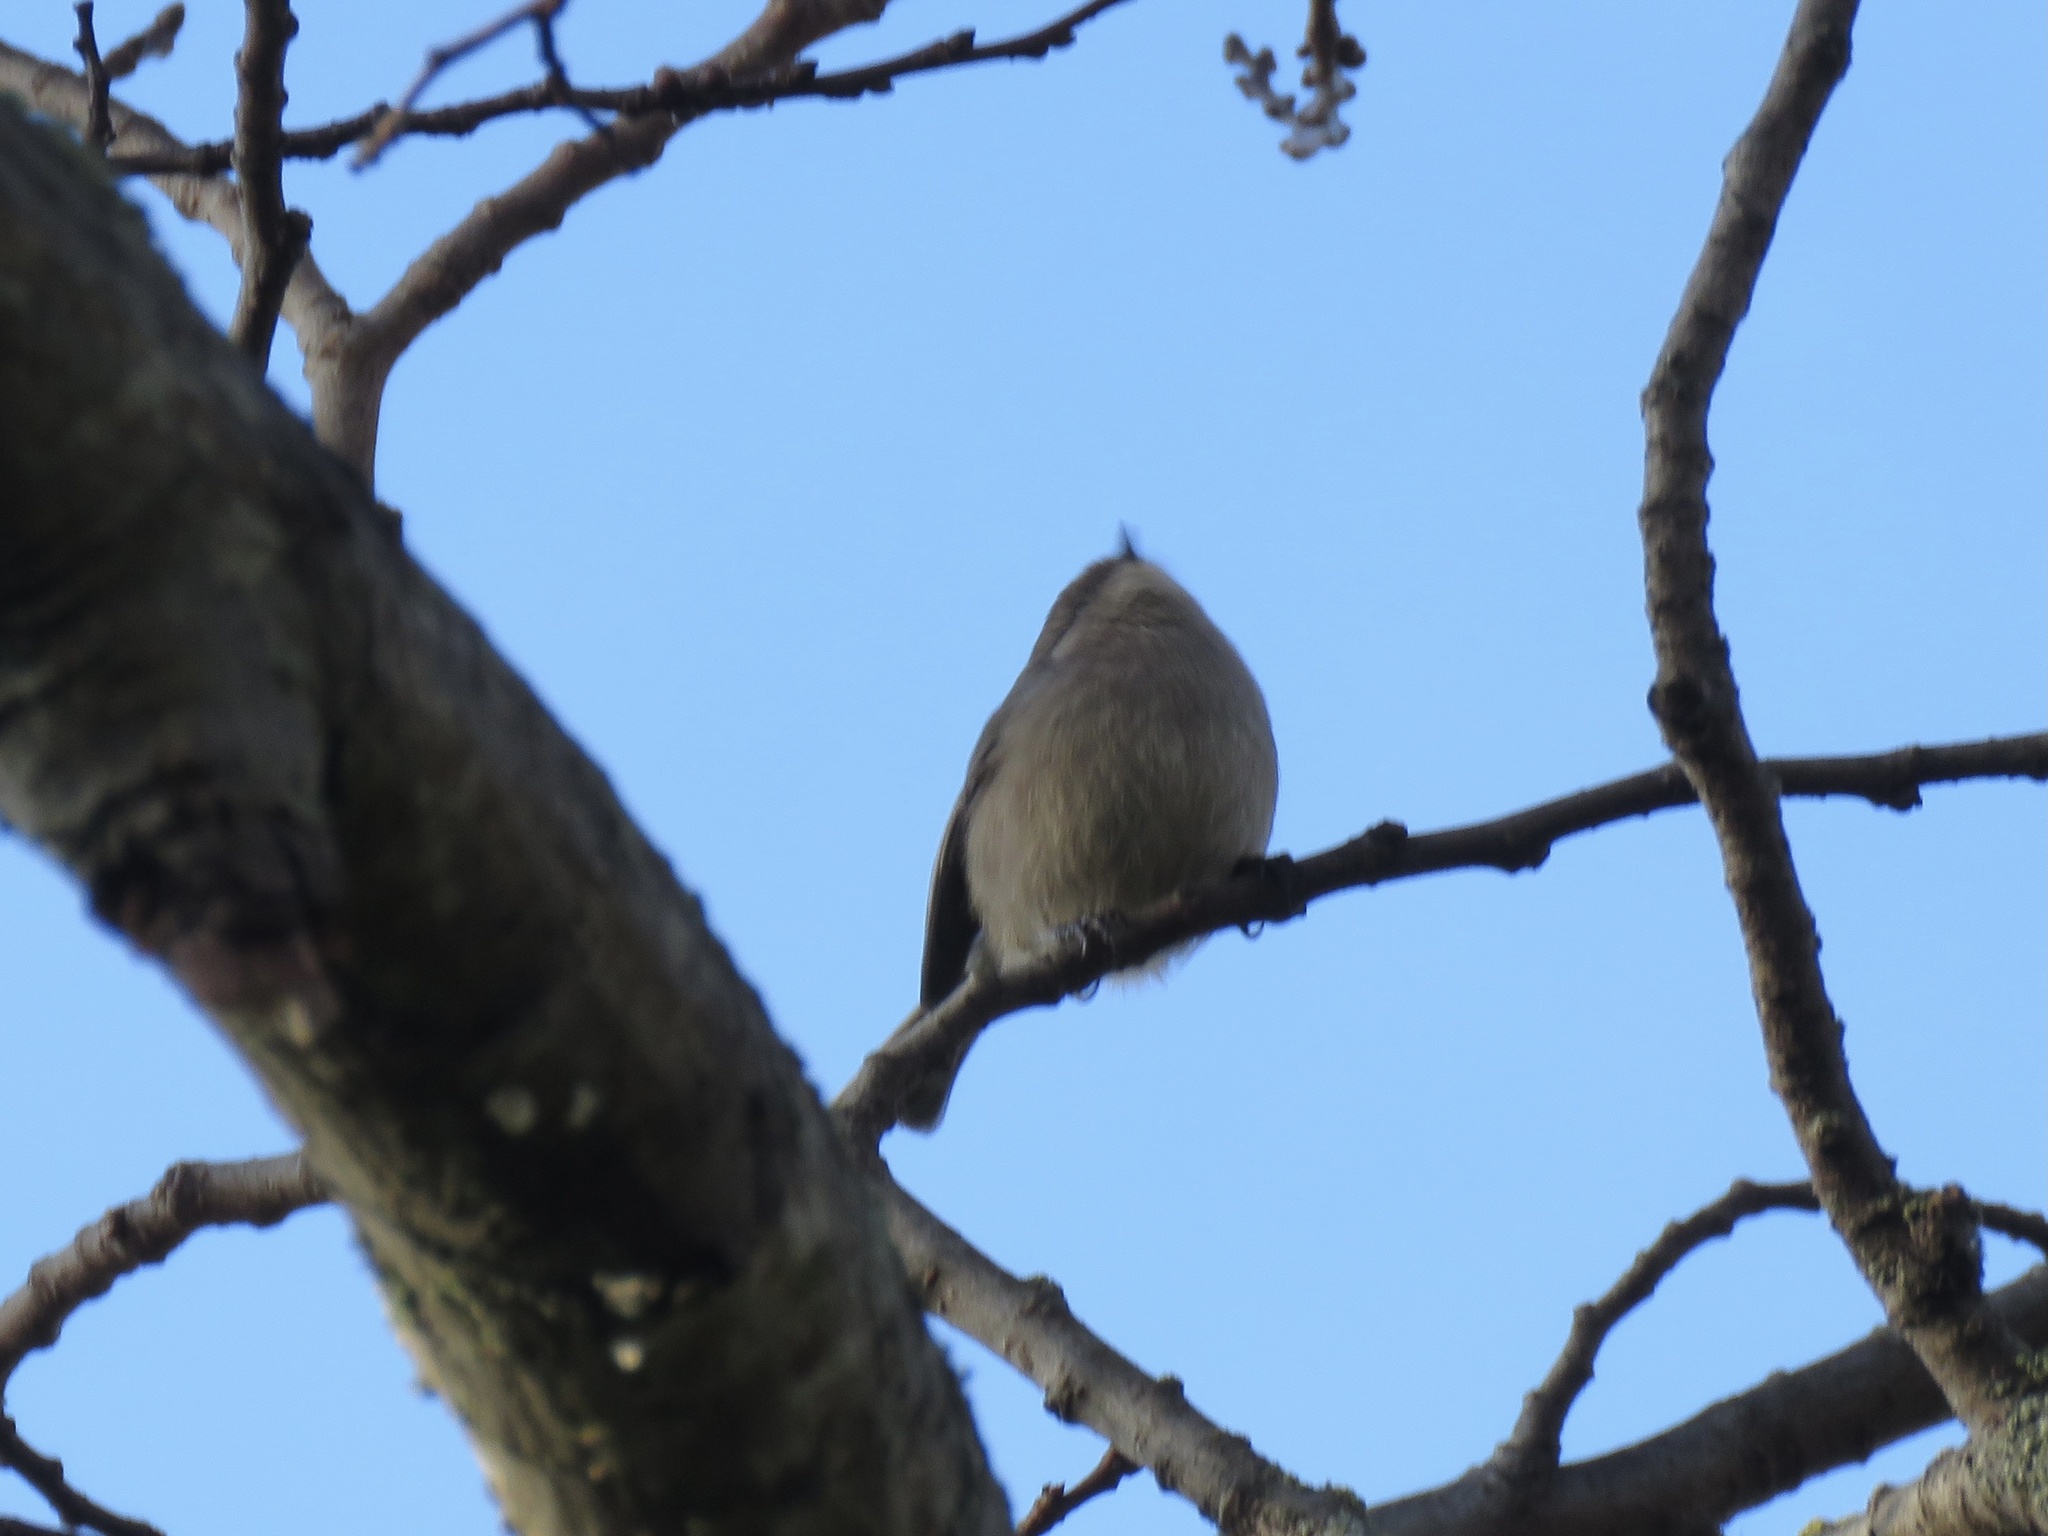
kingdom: Animalia
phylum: Chordata
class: Aves
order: Passeriformes
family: Aegithalidae
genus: Psaltriparus
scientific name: Psaltriparus minimus
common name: American bushtit
